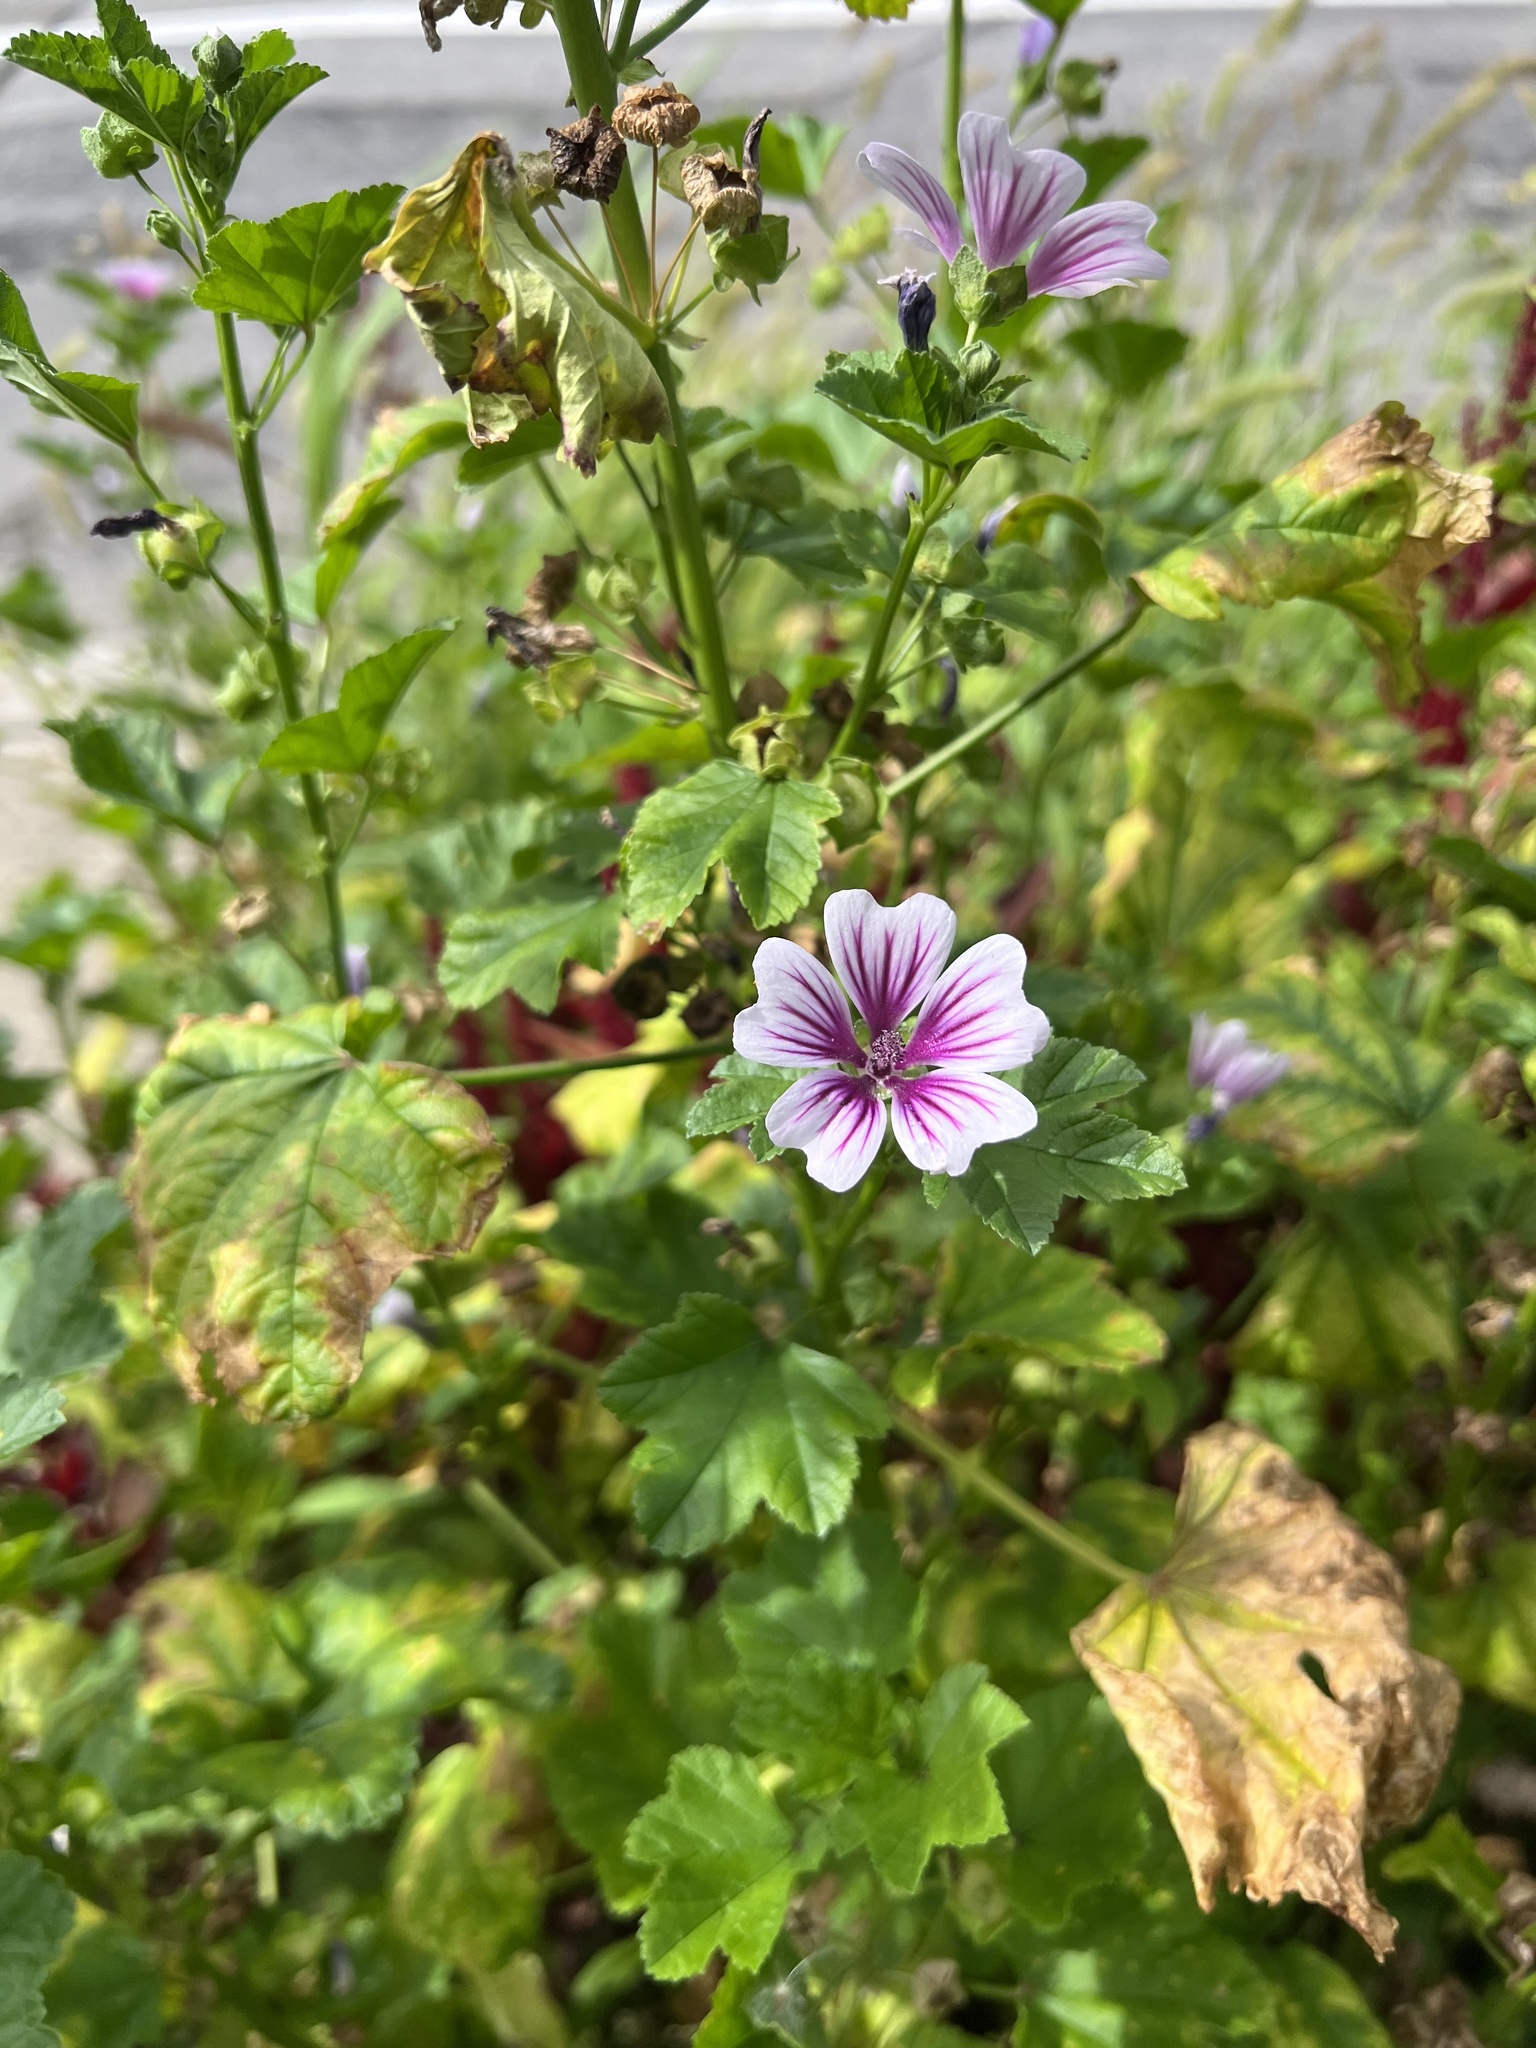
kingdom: Plantae
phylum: Tracheophyta
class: Magnoliopsida
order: Malvales
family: Malvaceae
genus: Malva
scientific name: Malva sylvestris
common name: Common mallow
